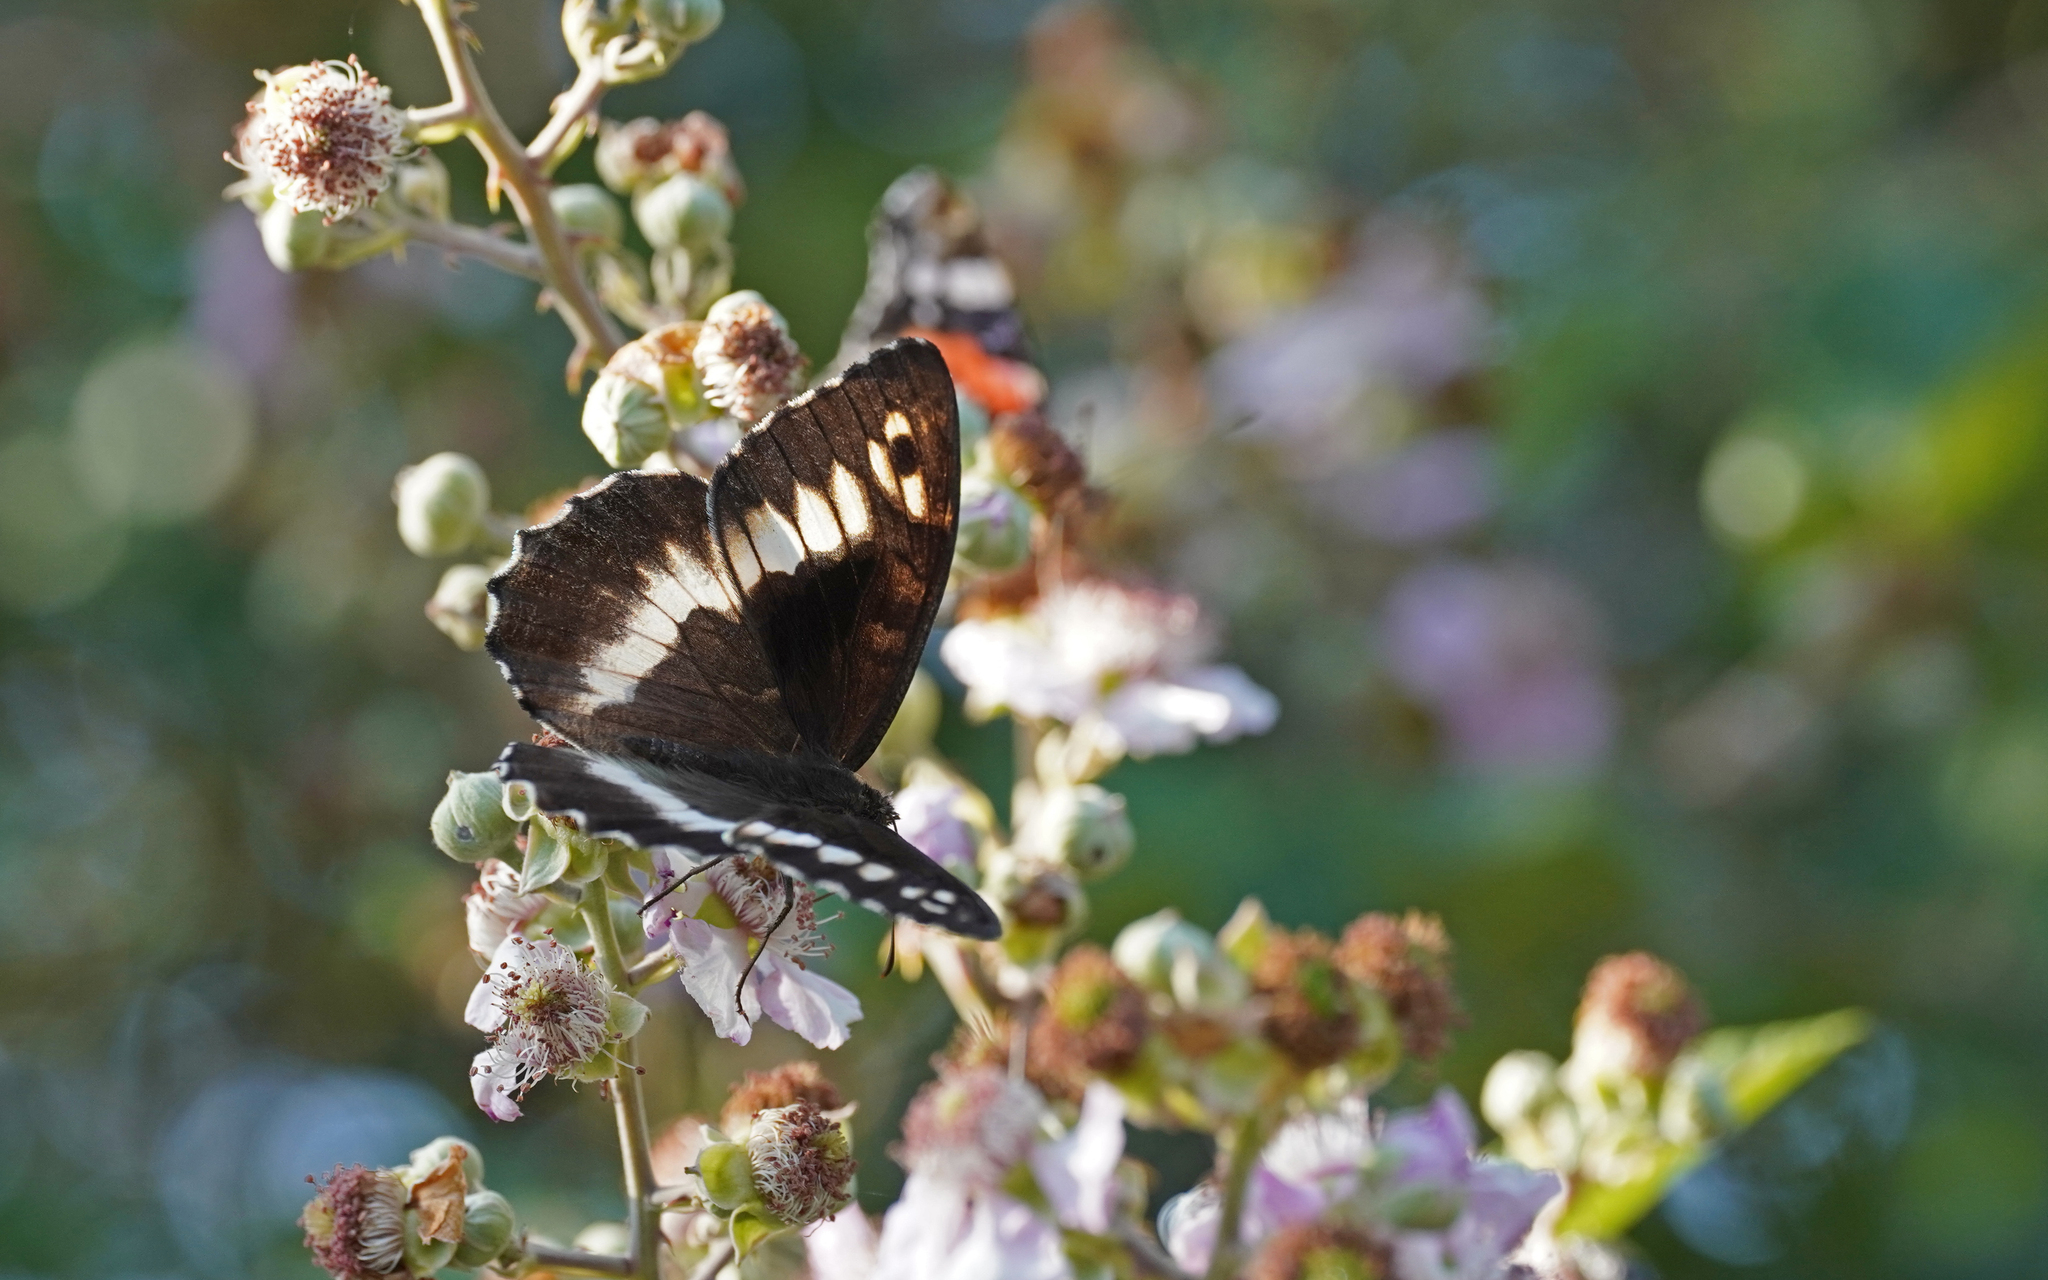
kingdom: Animalia
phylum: Arthropoda
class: Insecta
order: Lepidoptera
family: Lycaenidae
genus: Loweia
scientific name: Loweia tityrus
